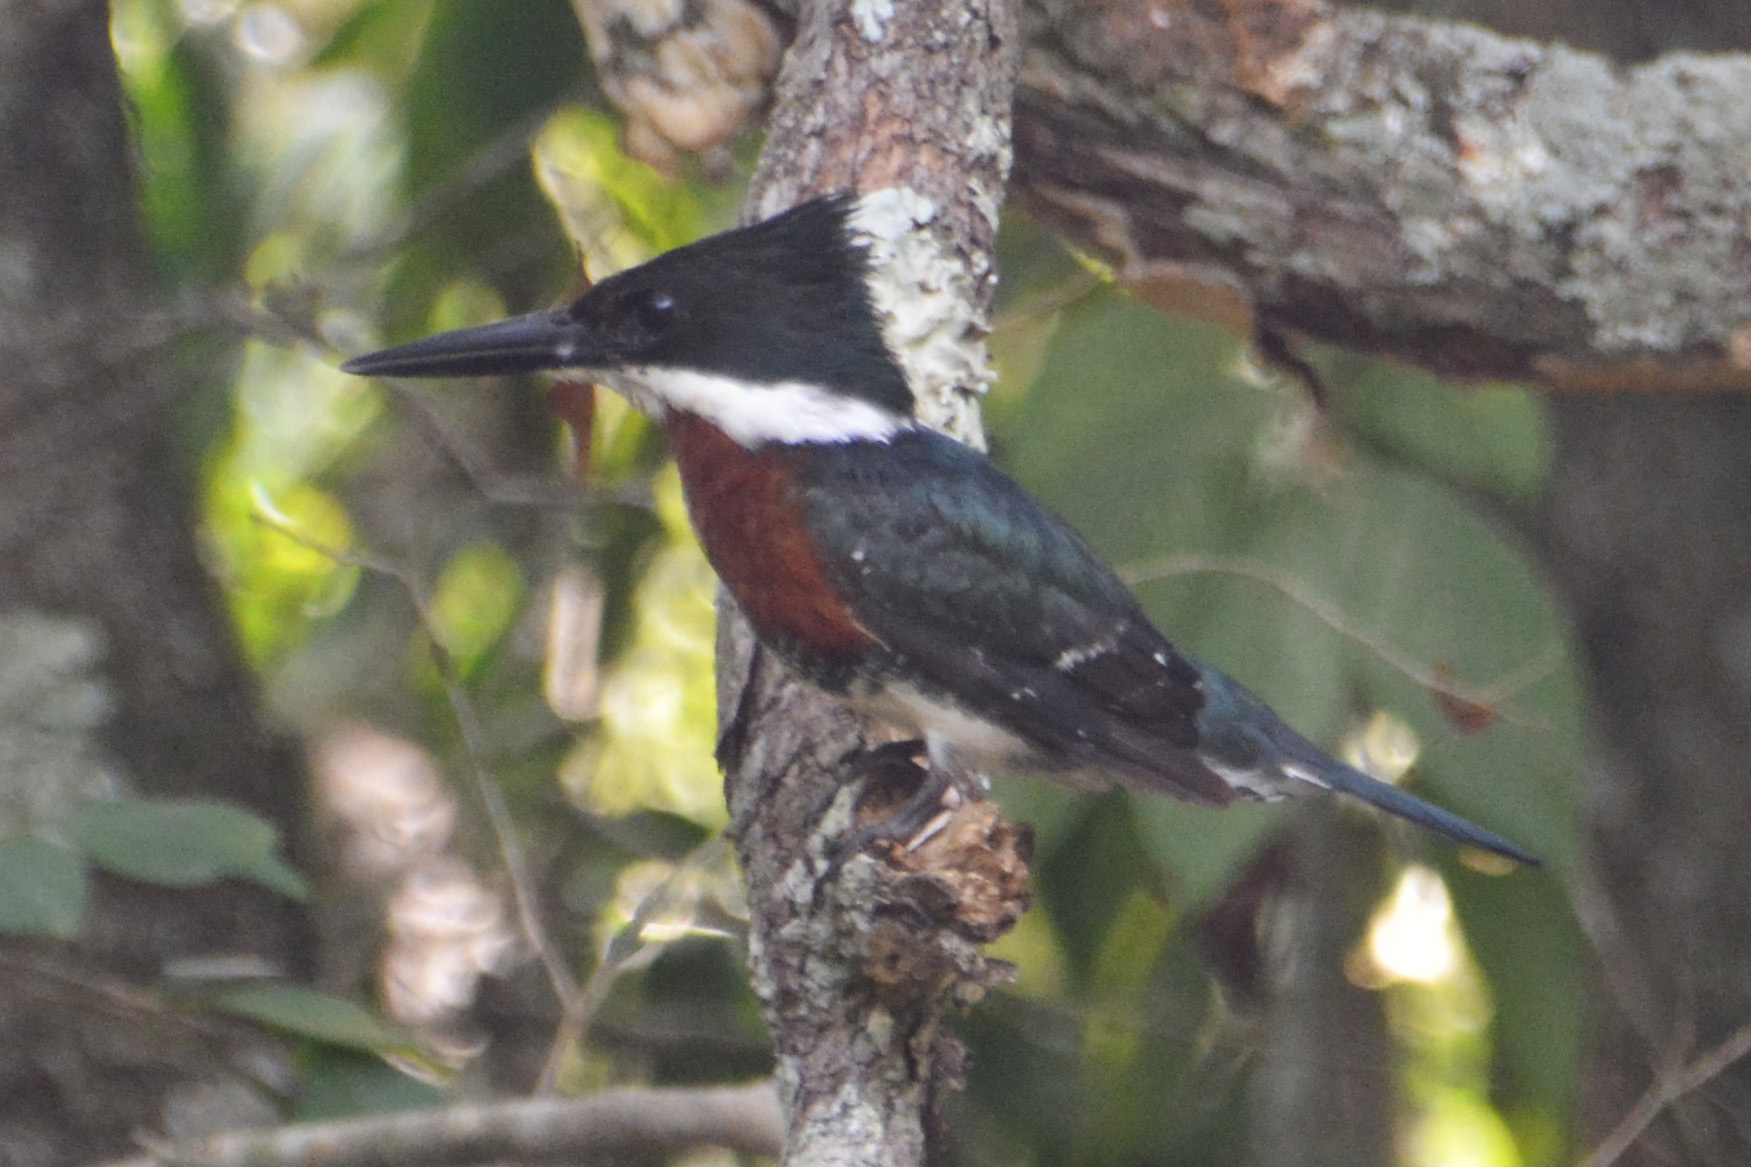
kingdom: Animalia
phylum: Chordata
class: Aves
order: Coraciiformes
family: Alcedinidae
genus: Chloroceryle
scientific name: Chloroceryle americana
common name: Green kingfisher
